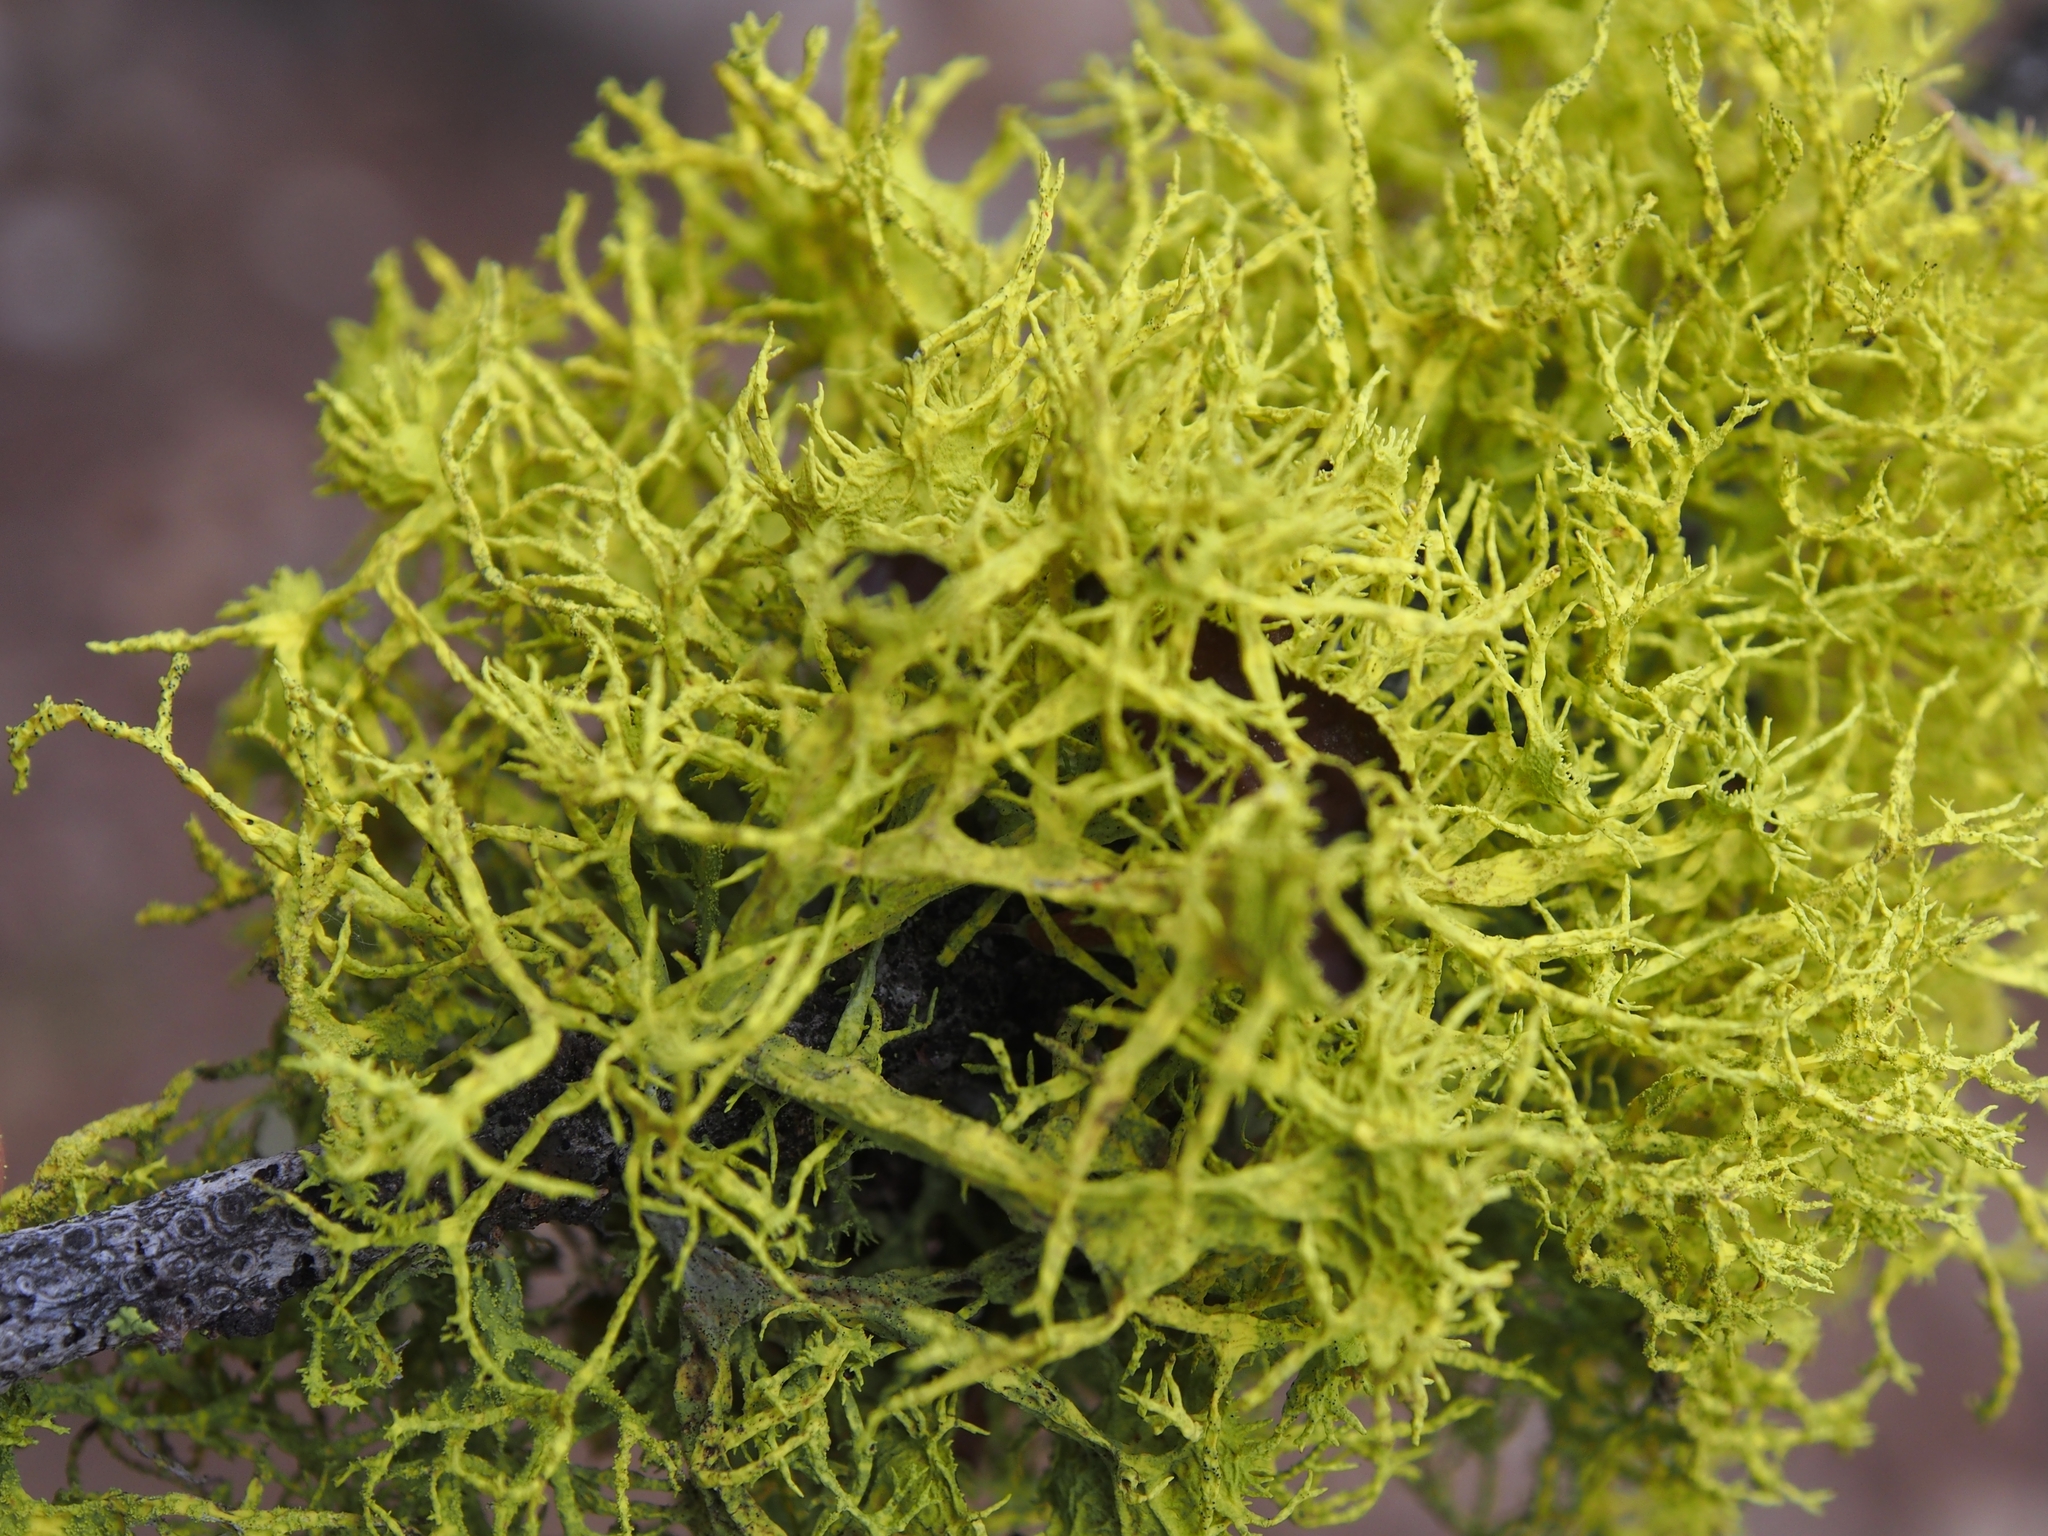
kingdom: Fungi
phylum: Ascomycota
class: Lecanoromycetes
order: Lecanorales
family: Parmeliaceae
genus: Letharia
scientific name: Letharia columbiana
